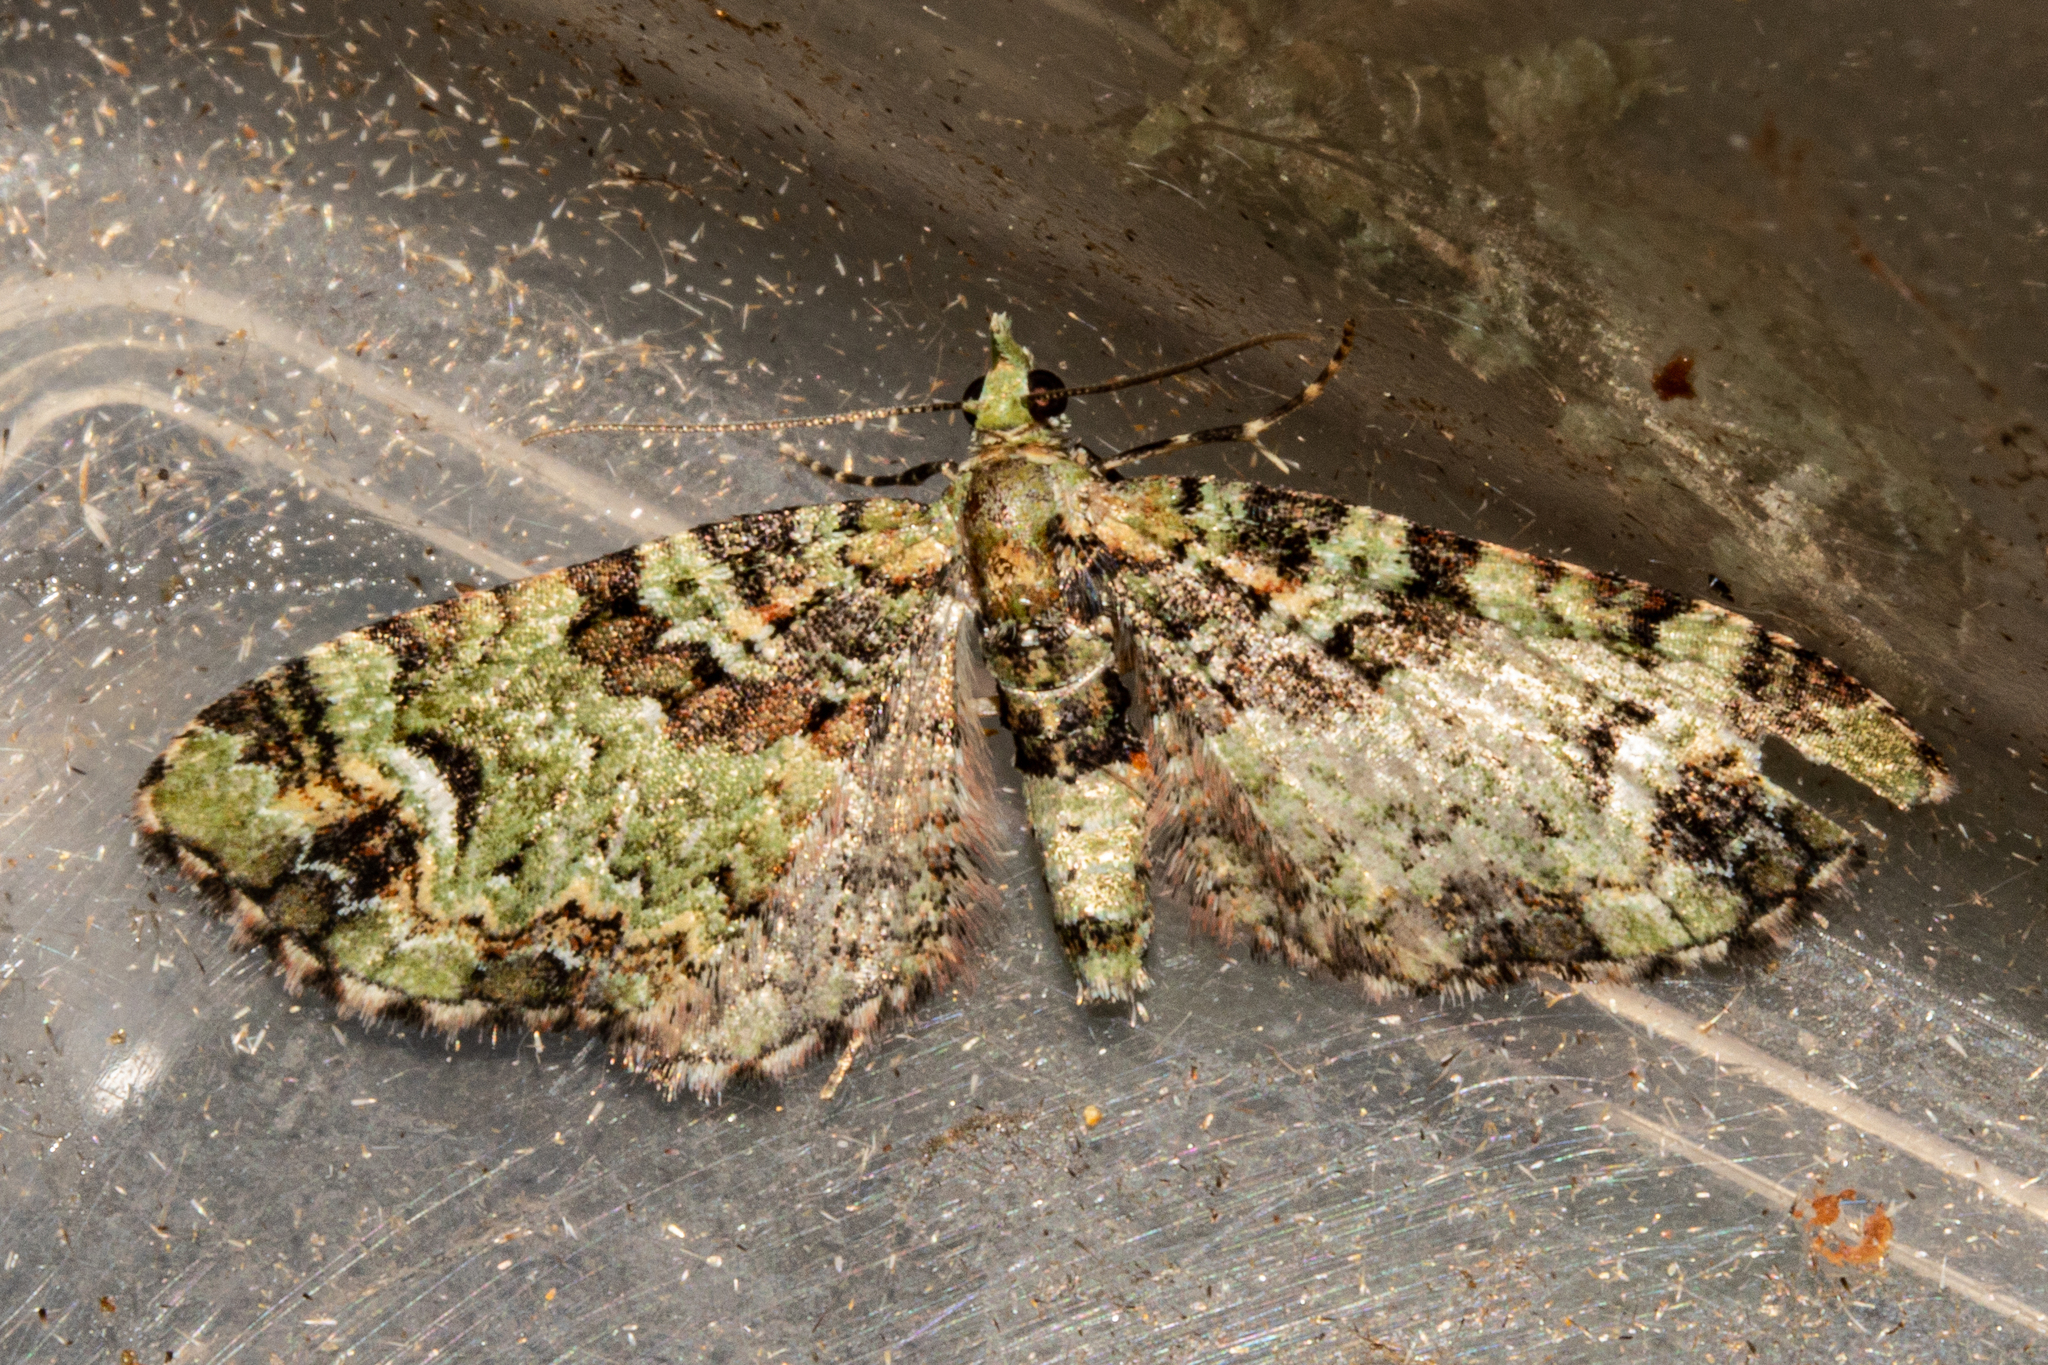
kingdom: Animalia
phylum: Arthropoda
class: Insecta
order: Lepidoptera
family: Geometridae
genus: Pasiphila
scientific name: Pasiphila bilineolata
